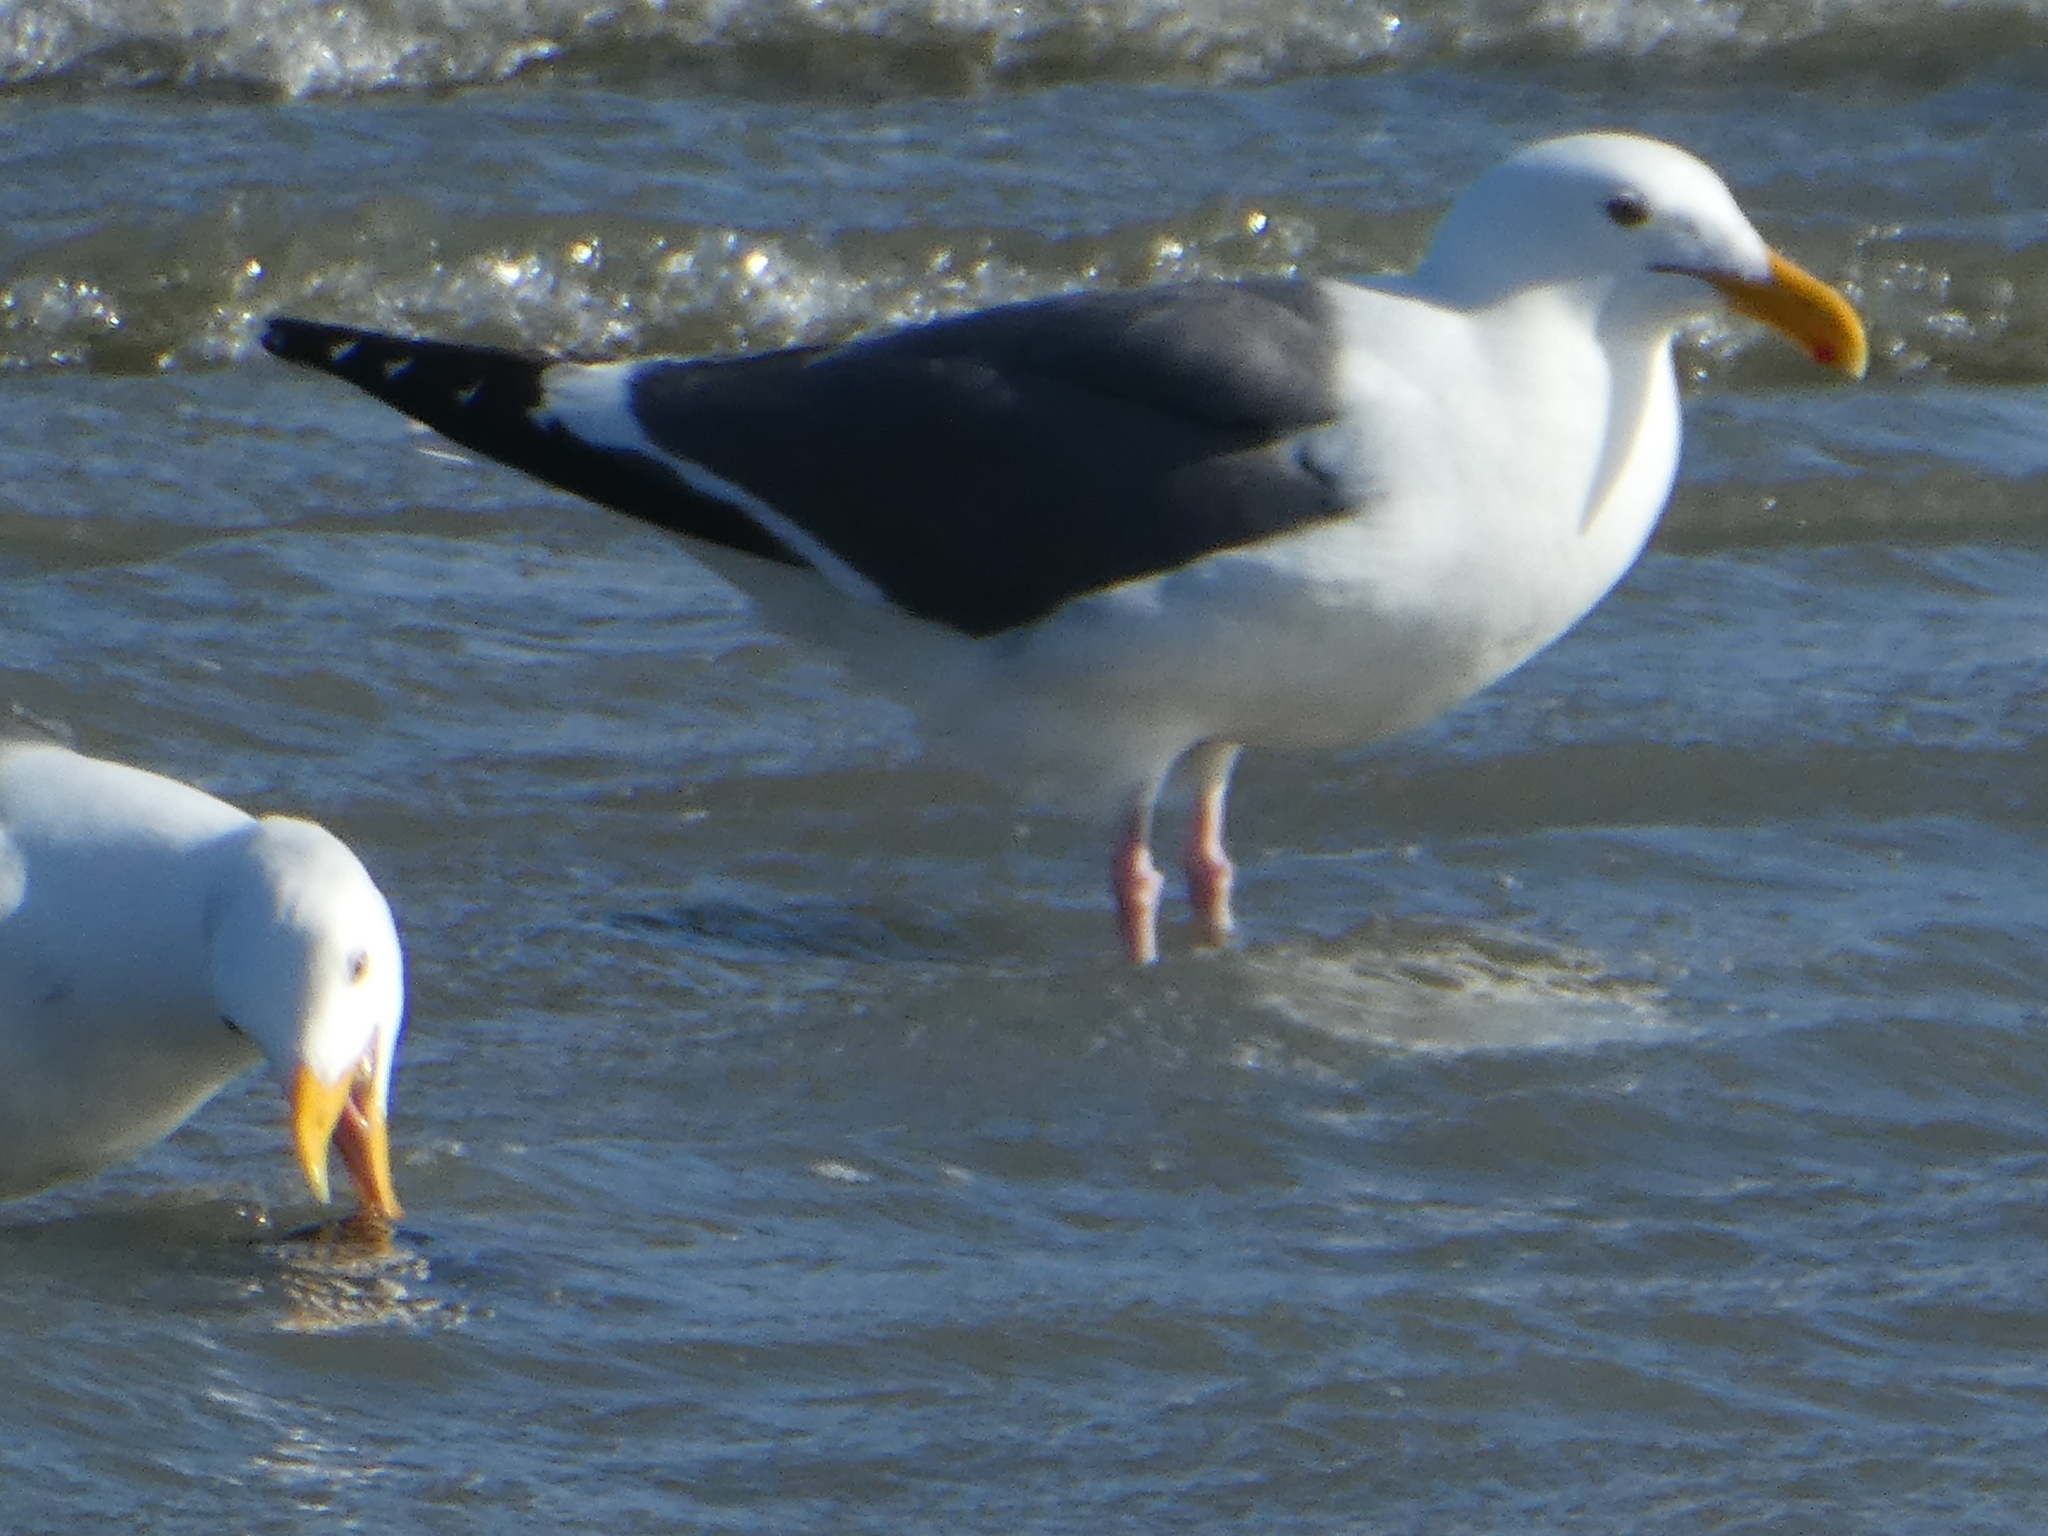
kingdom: Animalia
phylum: Chordata
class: Aves
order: Charadriiformes
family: Laridae
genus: Larus
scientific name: Larus occidentalis
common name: Western gull
